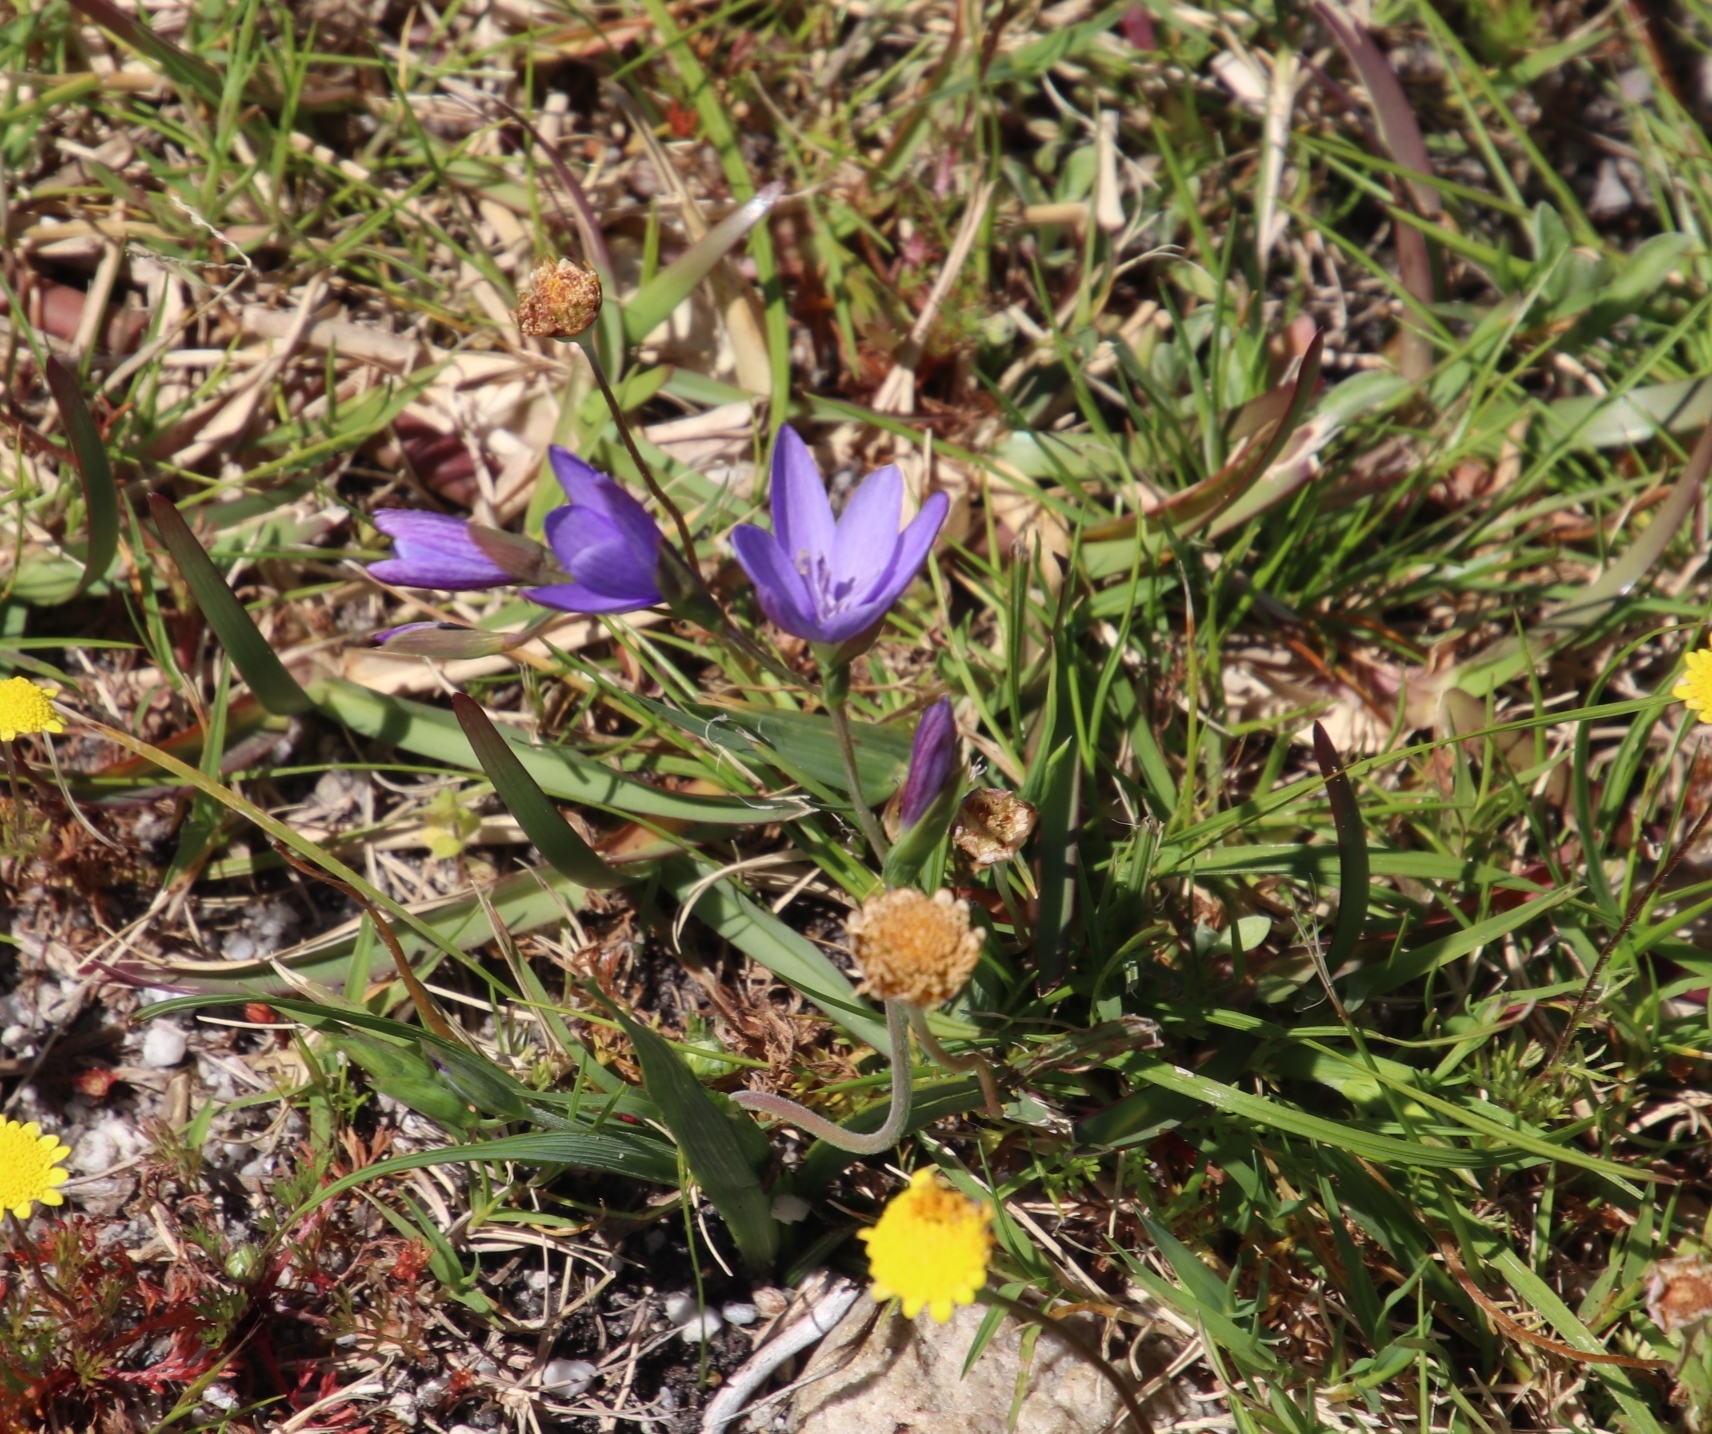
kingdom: Plantae
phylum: Tracheophyta
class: Liliopsida
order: Asparagales
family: Iridaceae
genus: Geissorhiza
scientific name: Geissorhiza aspera
